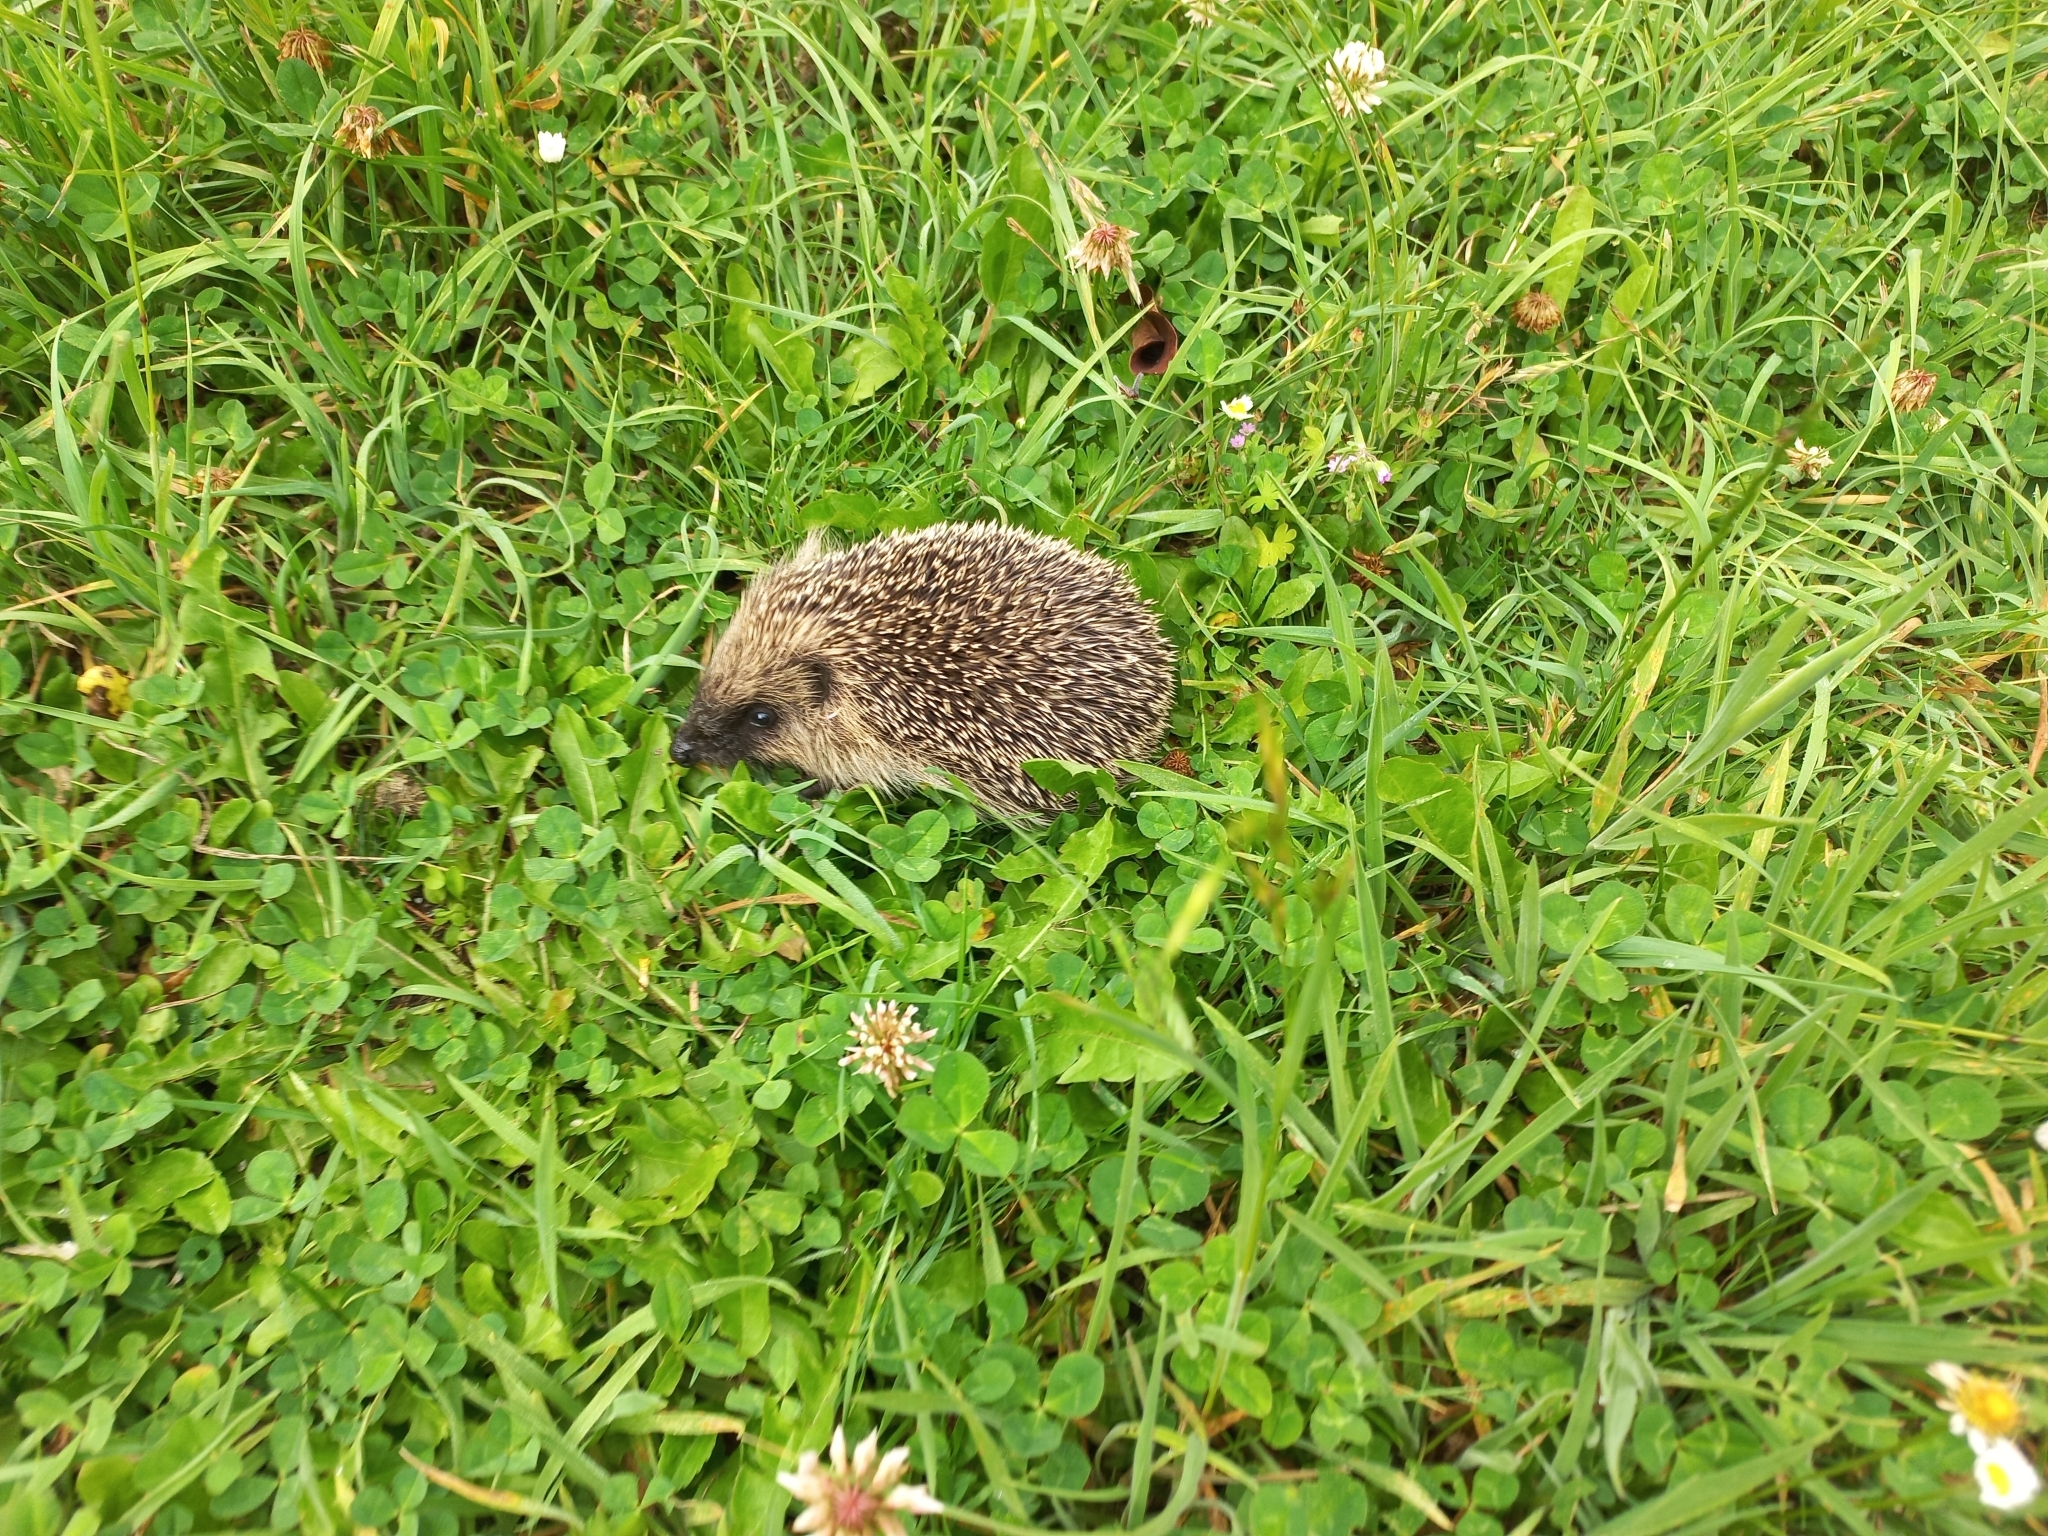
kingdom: Animalia
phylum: Chordata
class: Mammalia
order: Erinaceomorpha
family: Erinaceidae
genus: Erinaceus
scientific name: Erinaceus europaeus
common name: West european hedgehog
